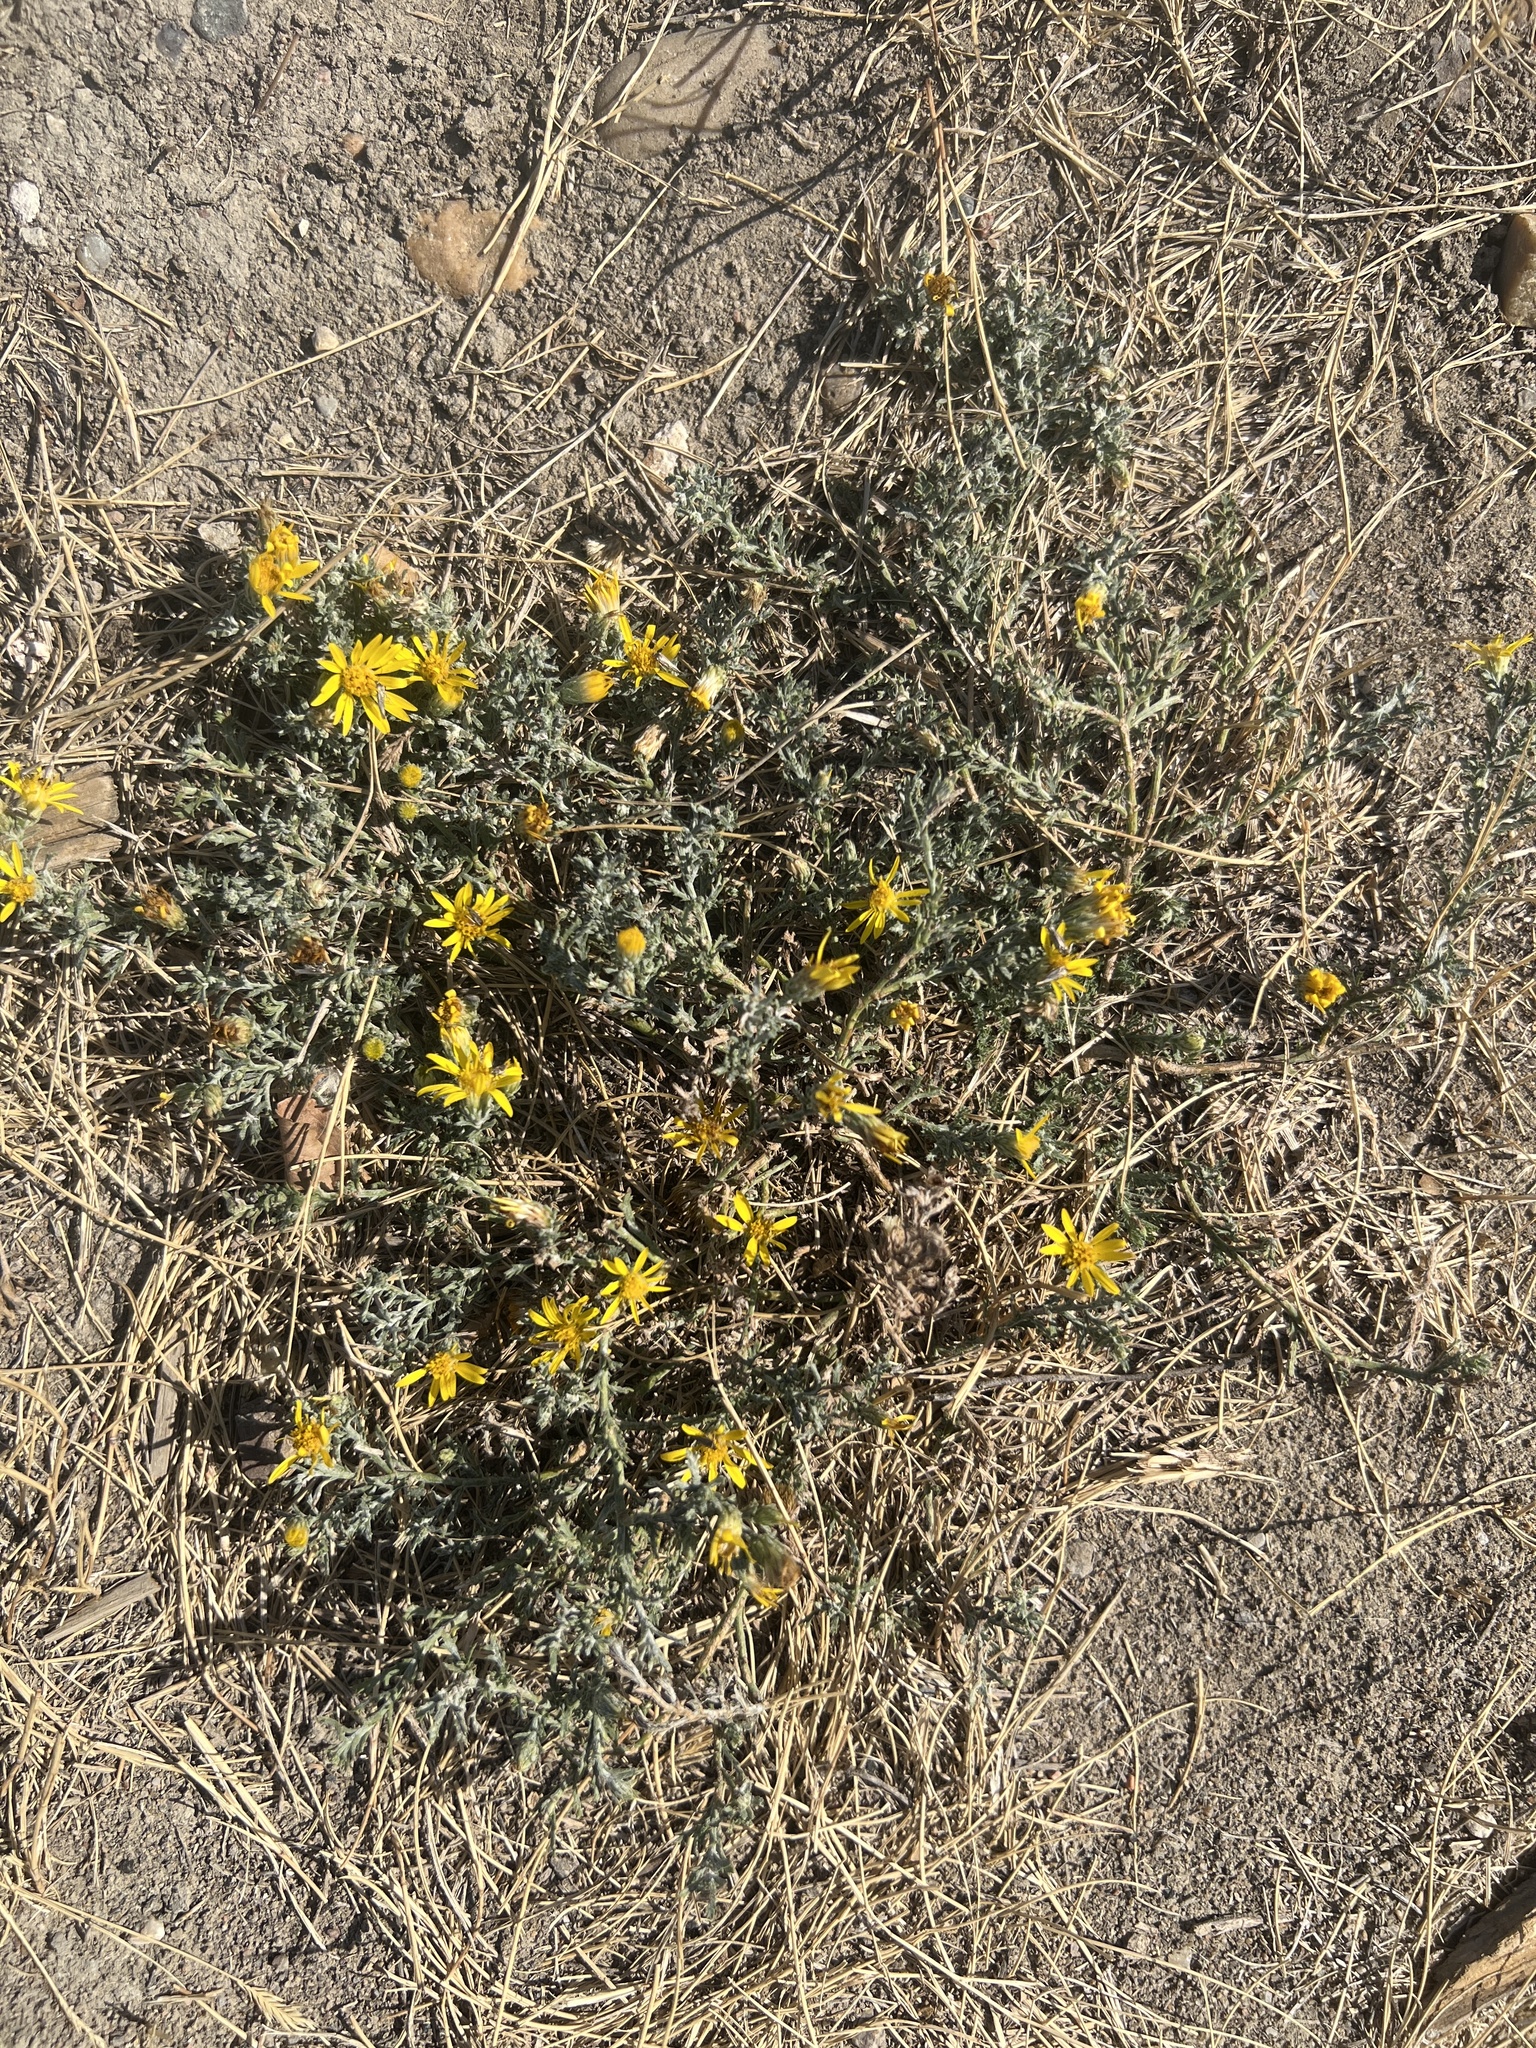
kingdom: Plantae
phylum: Tracheophyta
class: Magnoliopsida
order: Asterales
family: Asteraceae
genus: Xanthisma
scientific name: Xanthisma spinulosum
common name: Spiny goldenweed
